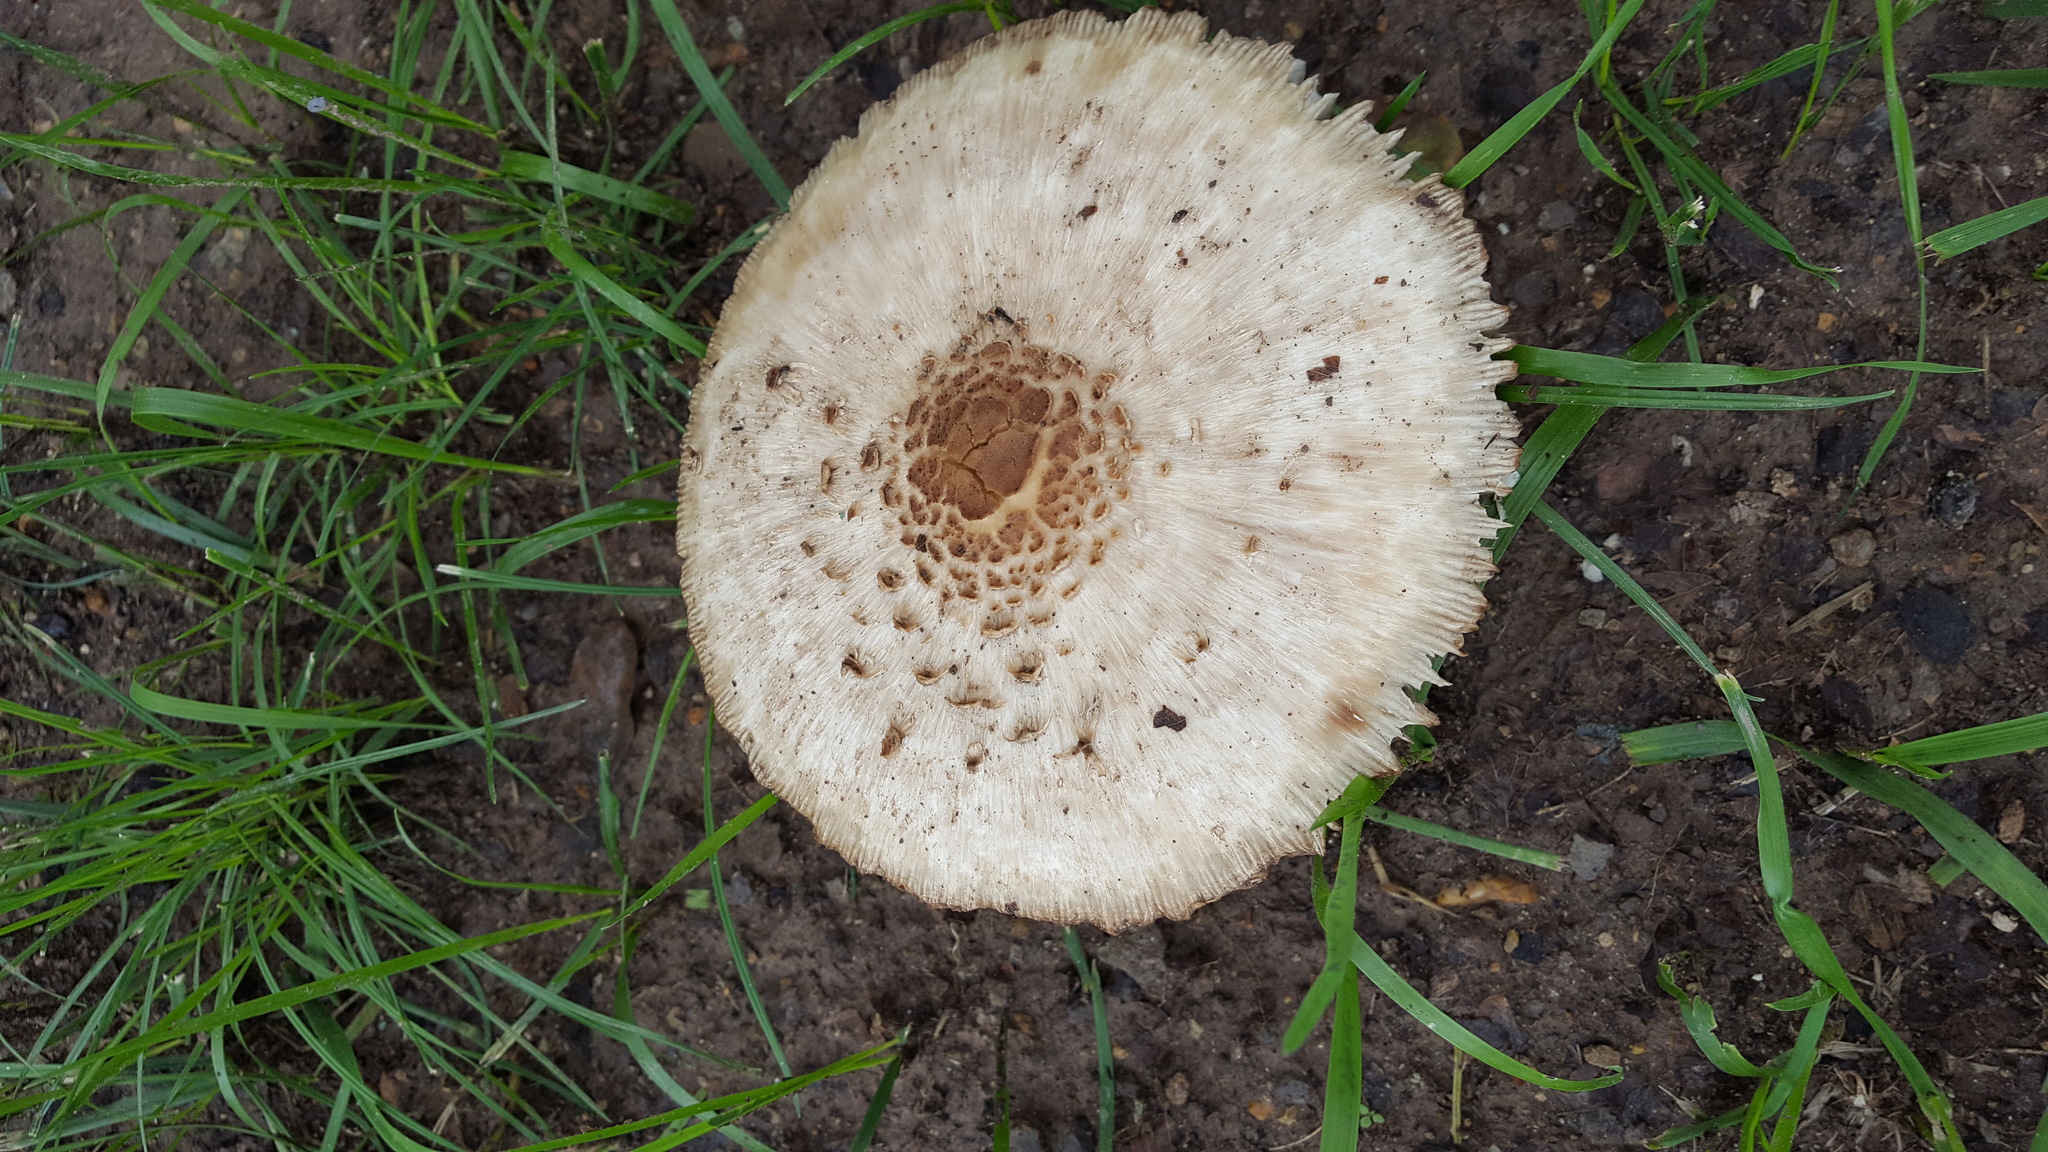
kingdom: Fungi
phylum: Basidiomycota
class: Agaricomycetes
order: Agaricales
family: Agaricaceae
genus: Chlorophyllum
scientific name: Chlorophyllum molybdites
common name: False parasol
